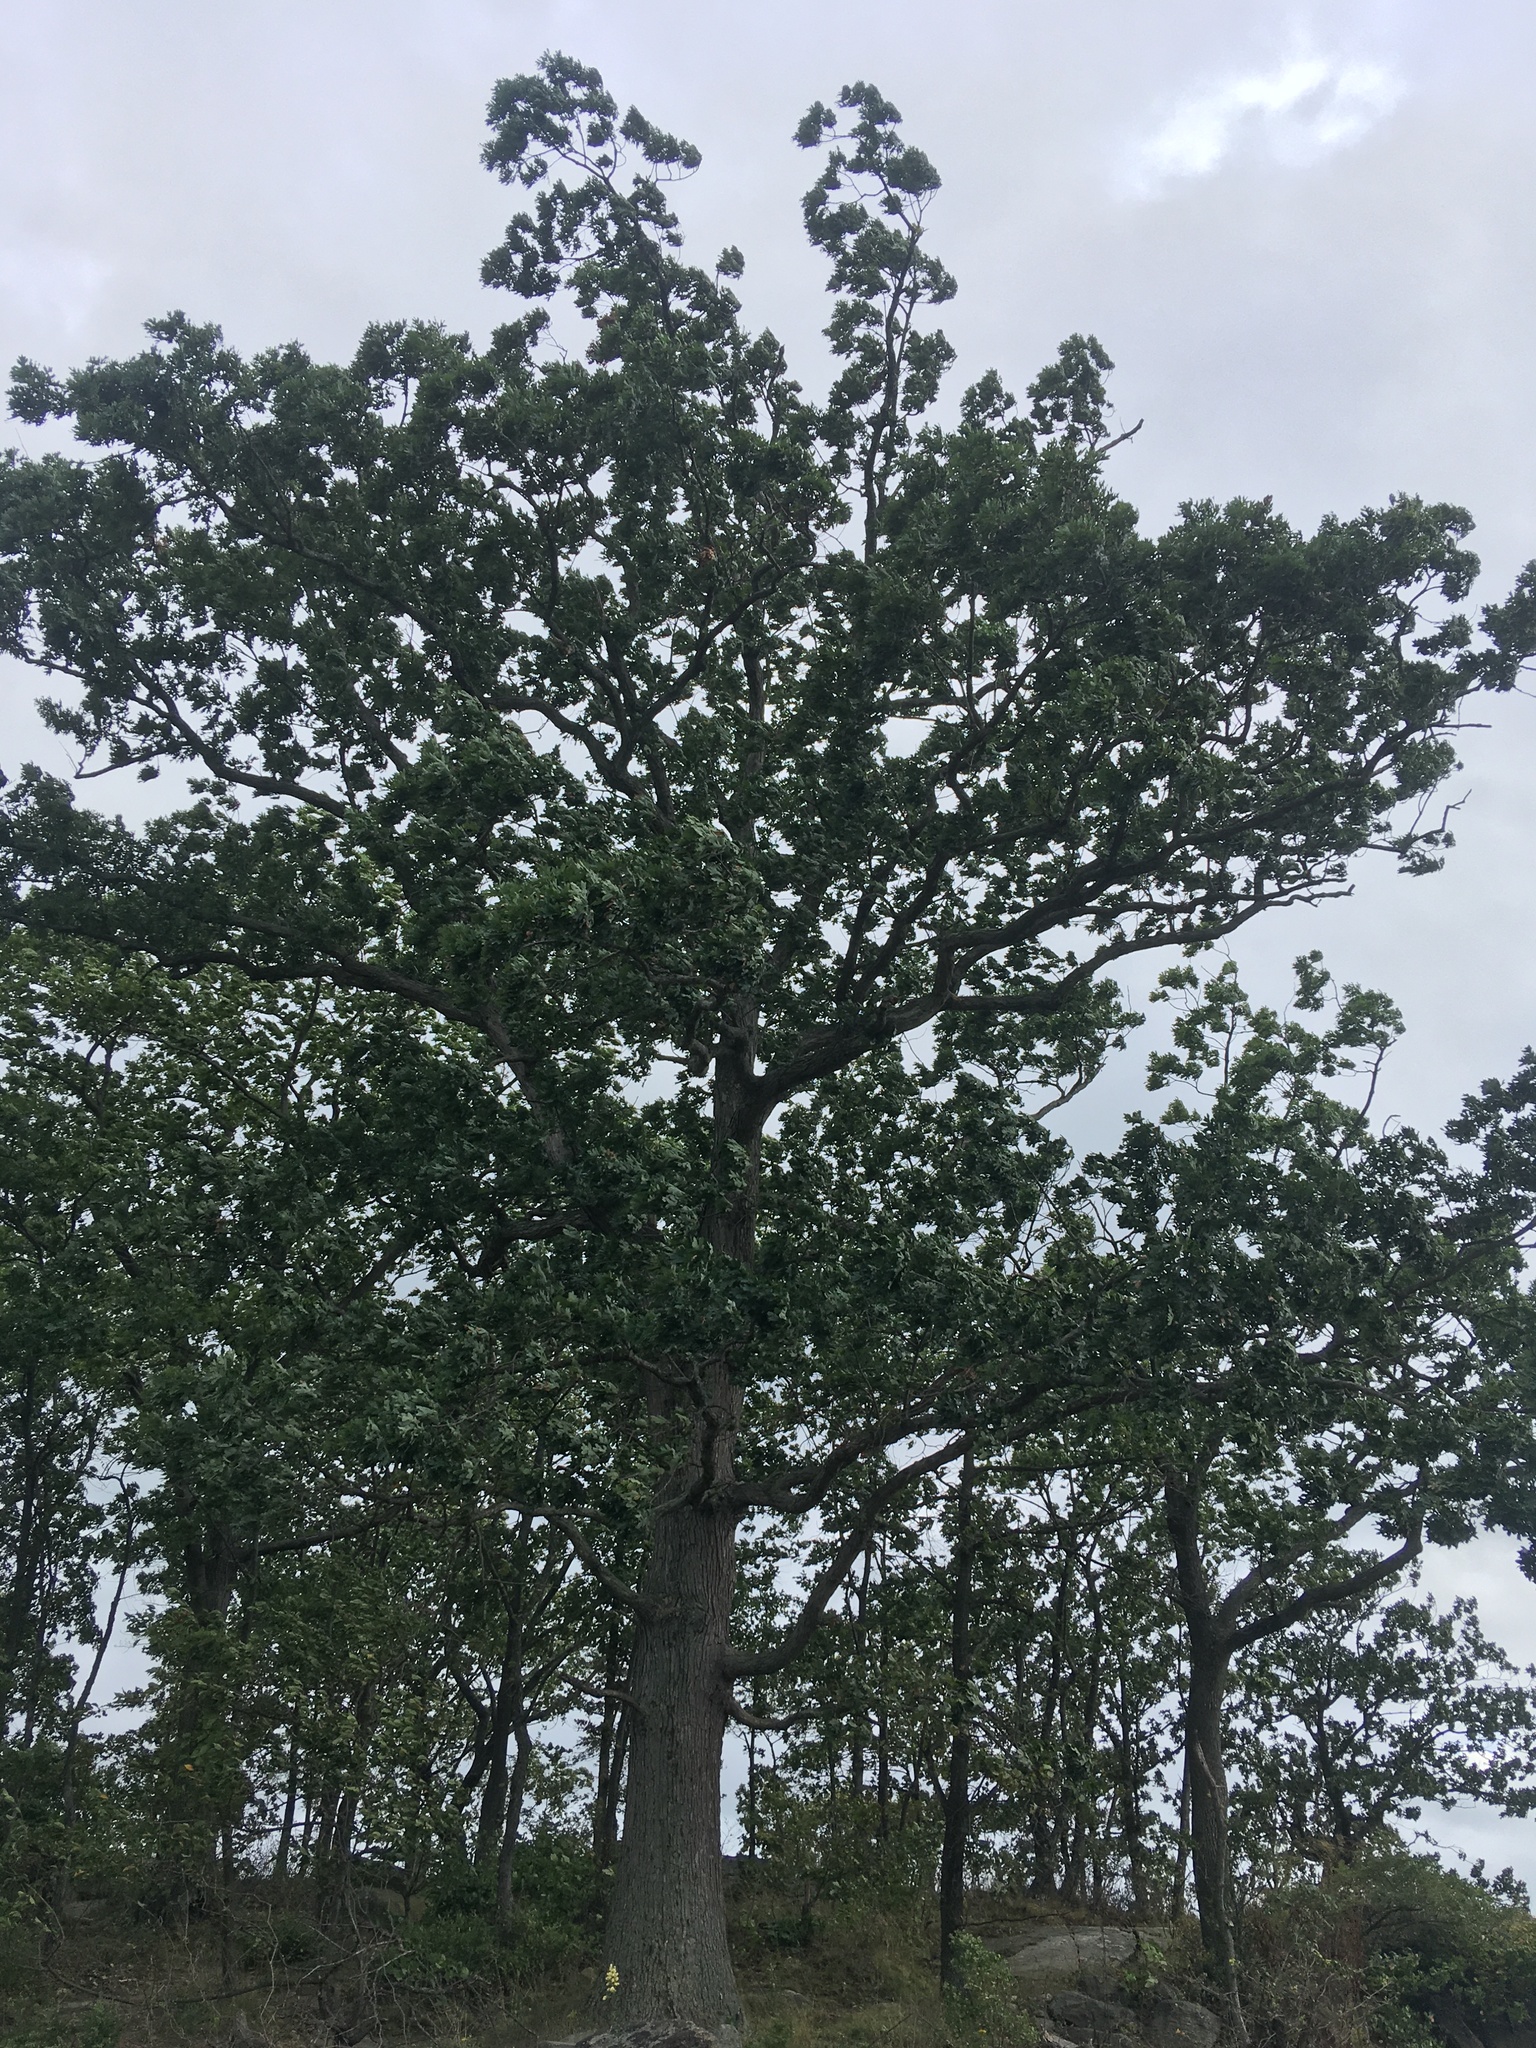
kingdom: Plantae
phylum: Tracheophyta
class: Magnoliopsida
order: Fagales
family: Fagaceae
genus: Quercus
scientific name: Quercus alba
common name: White oak
